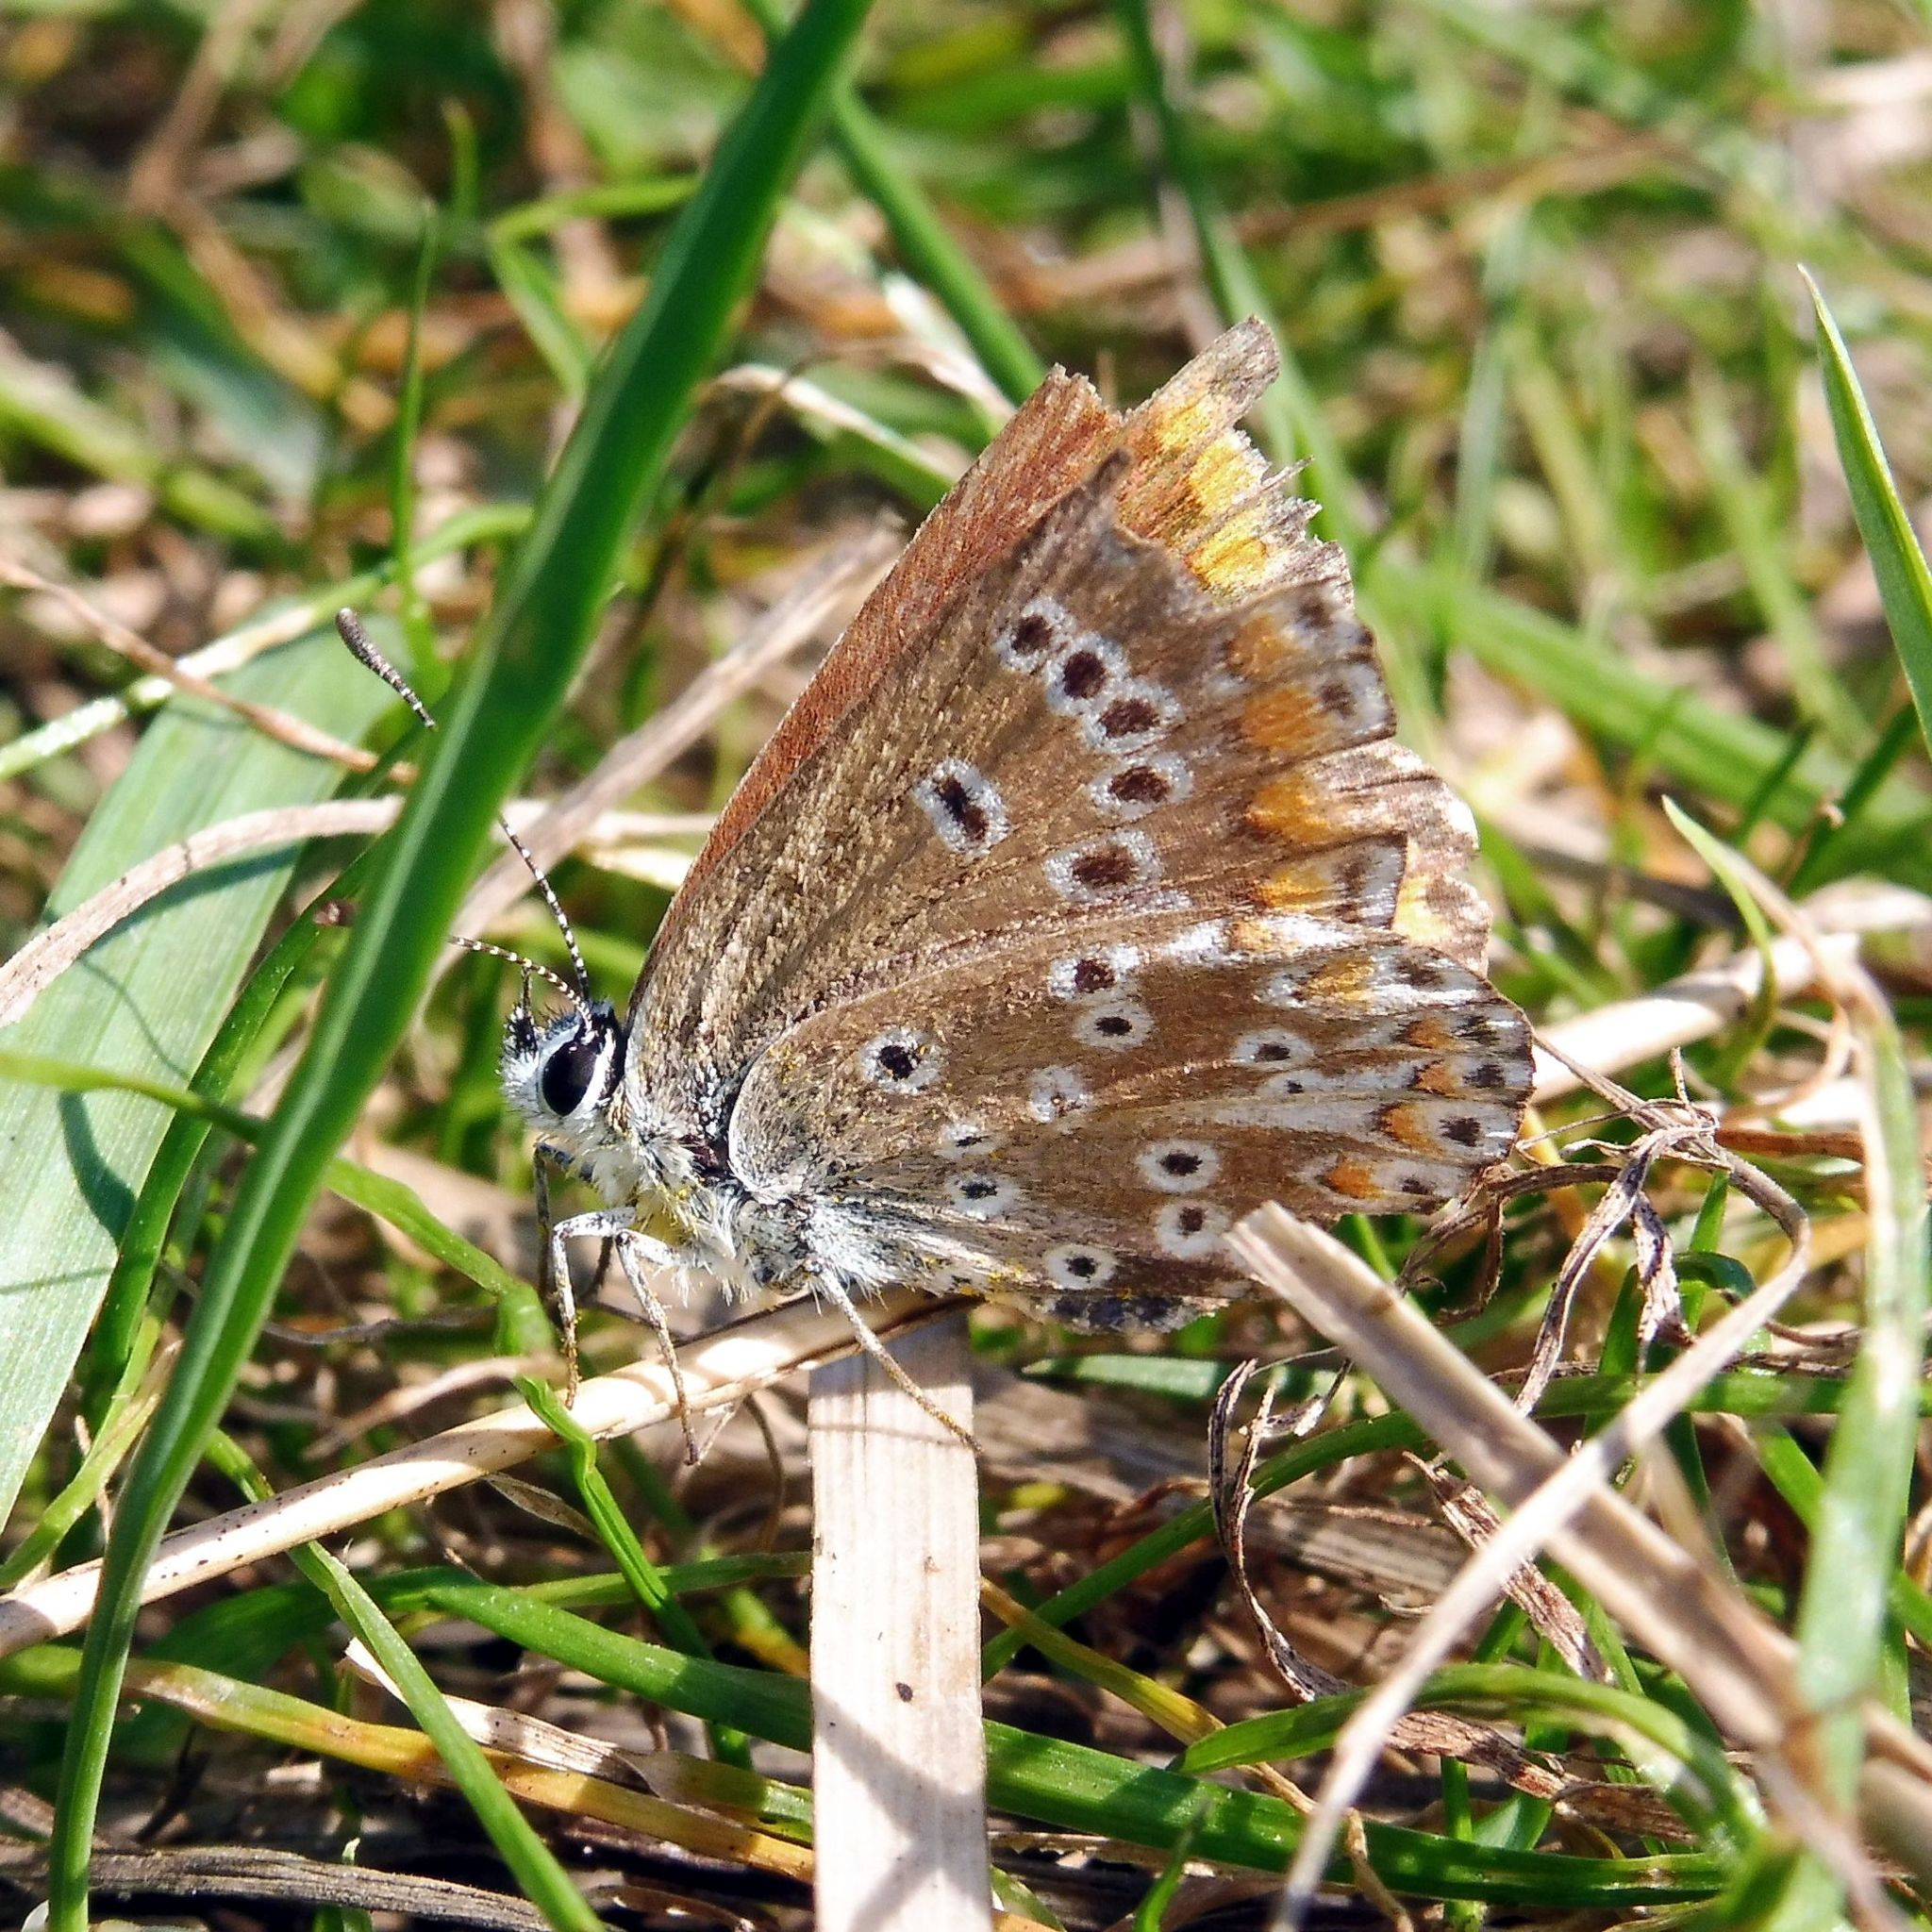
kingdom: Animalia
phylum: Arthropoda
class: Insecta
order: Lepidoptera
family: Lycaenidae
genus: Aricia
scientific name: Aricia agestis
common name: Brown argus
